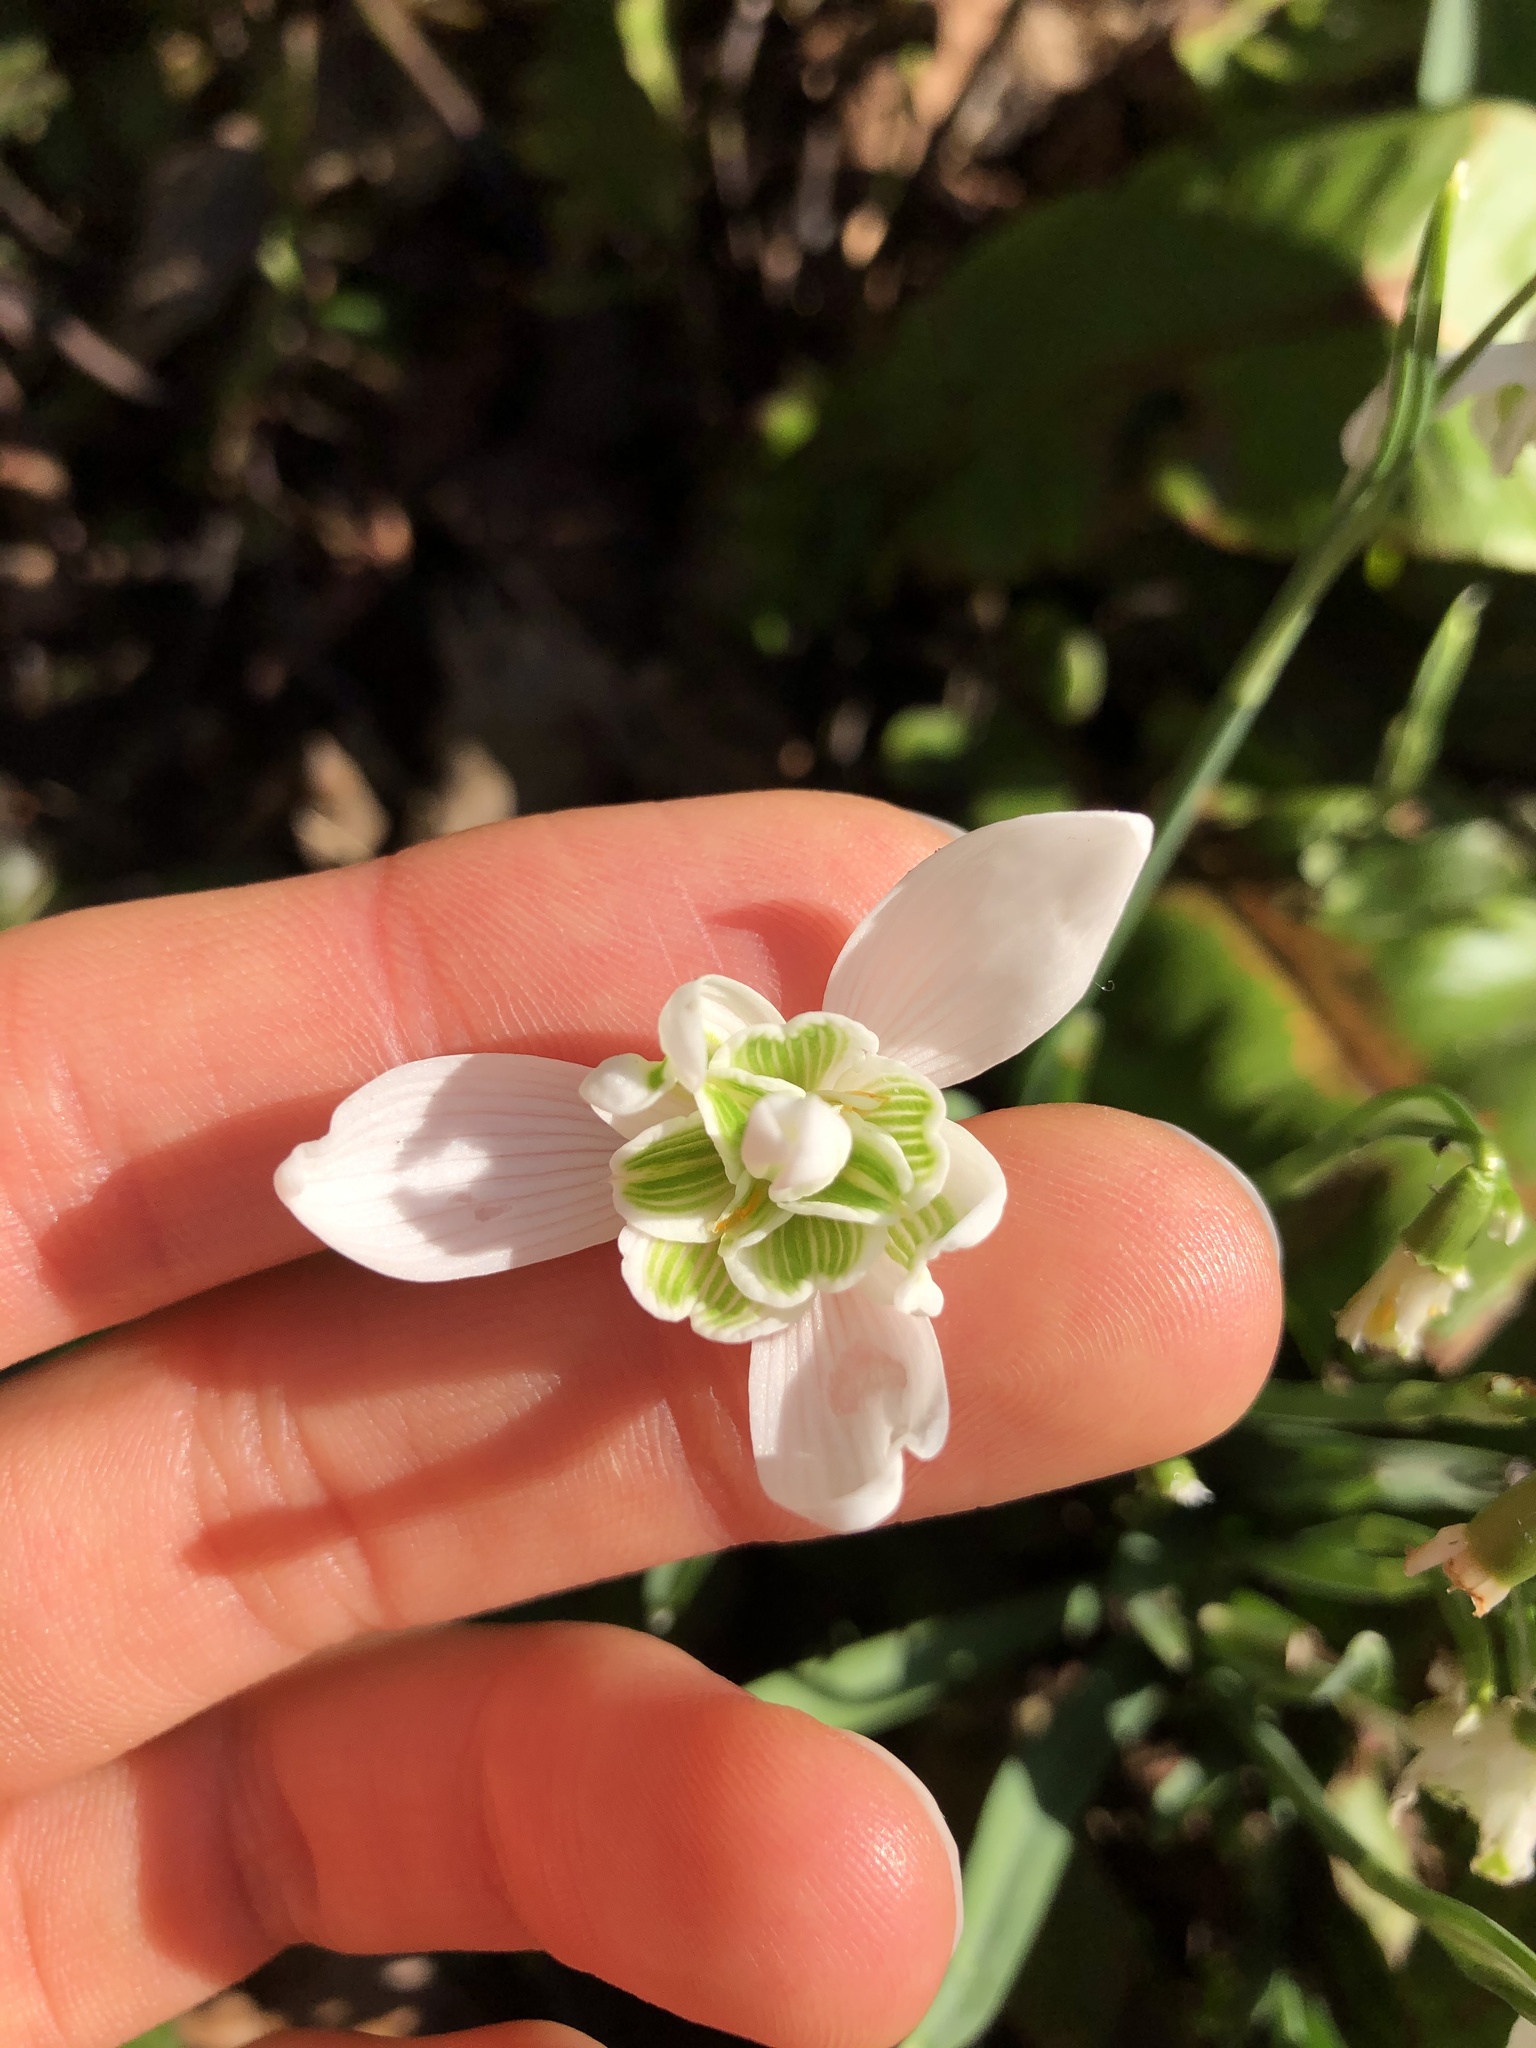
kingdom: Plantae
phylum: Tracheophyta
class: Liliopsida
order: Asparagales
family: Amaryllidaceae
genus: Galanthus
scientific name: Galanthus nivalis
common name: Snowdrop
